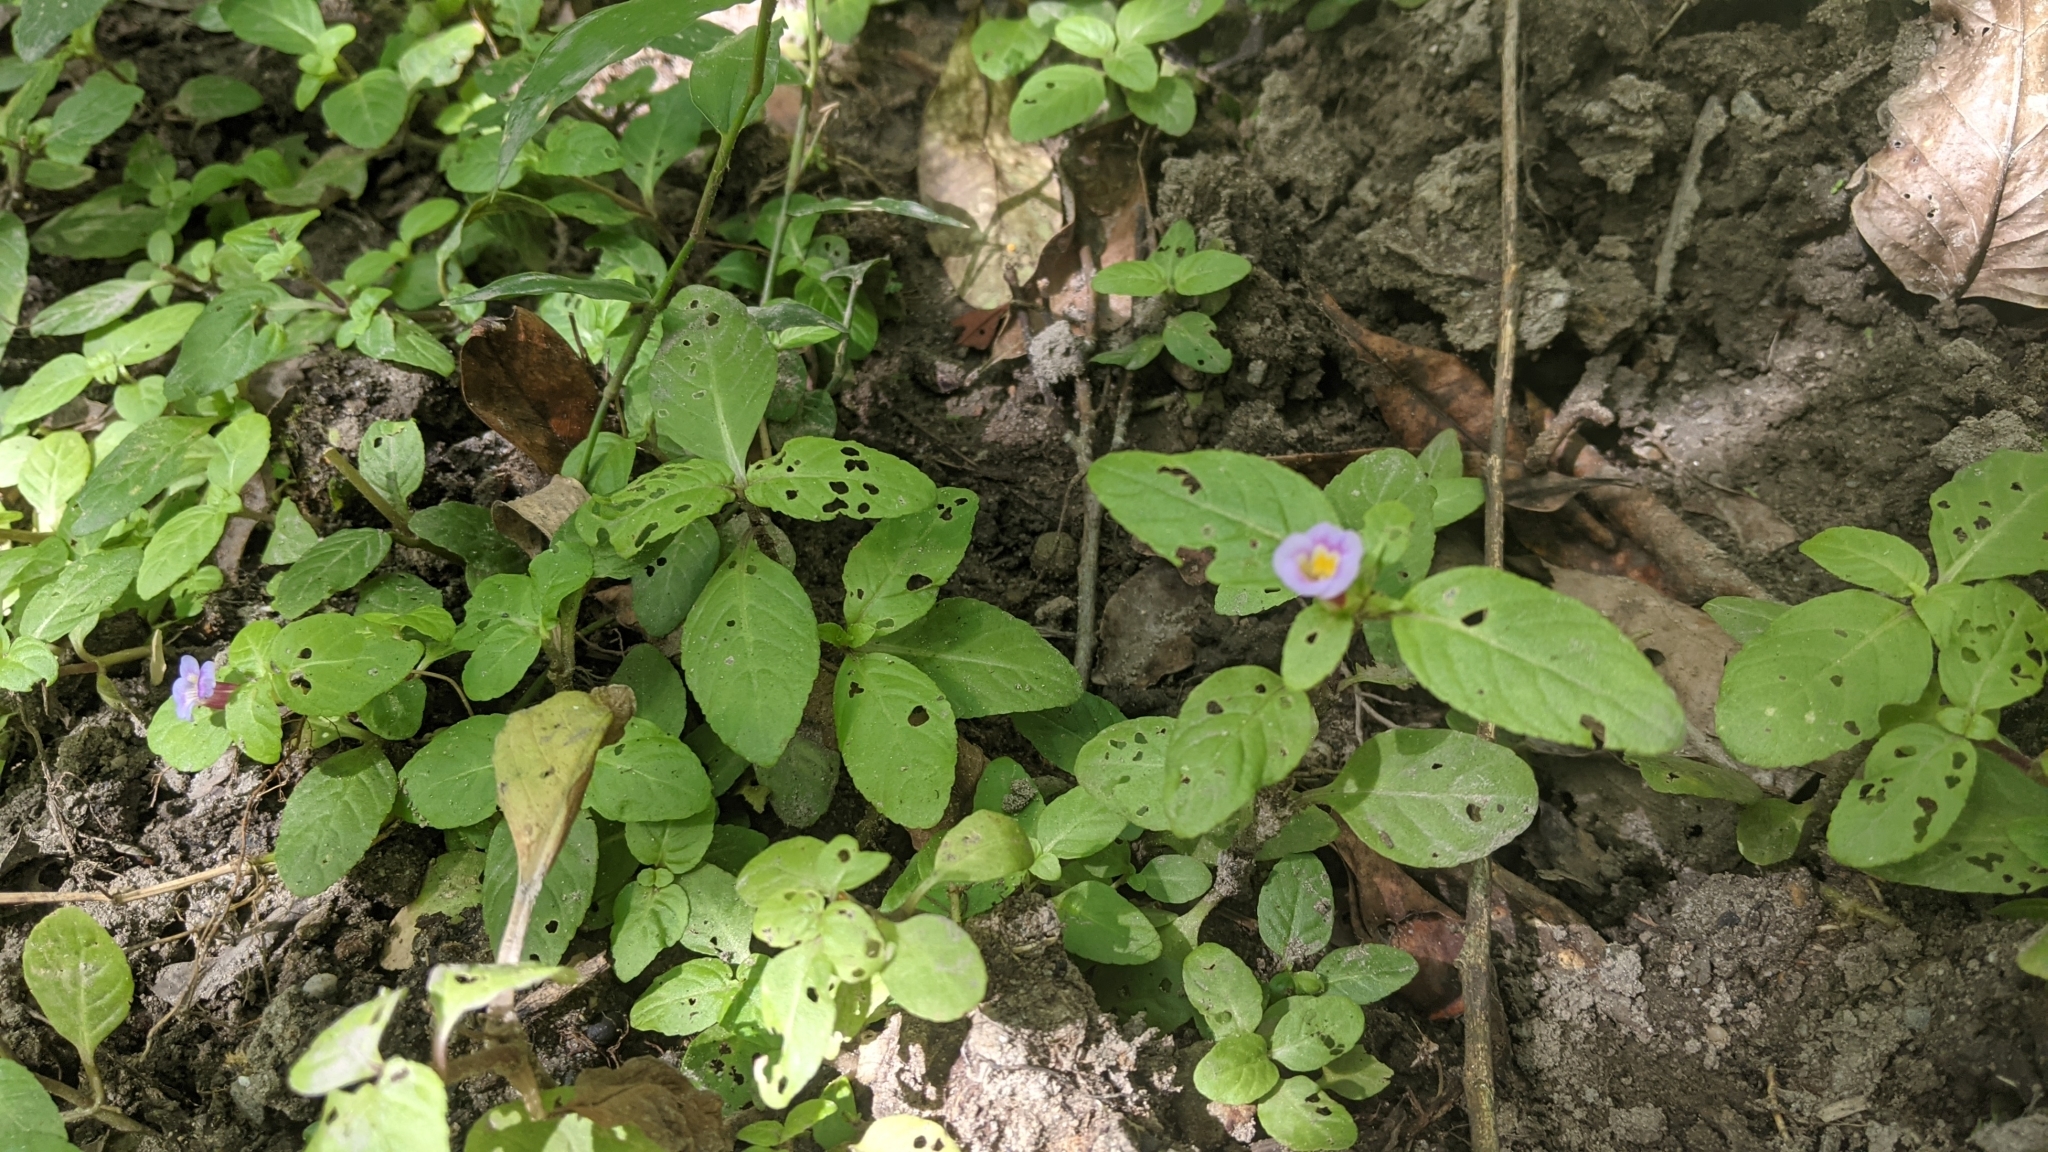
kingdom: Plantae
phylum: Tracheophyta
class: Magnoliopsida
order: Lamiales
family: Plantaginaceae
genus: Limnophila
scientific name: Limnophila rugosa
